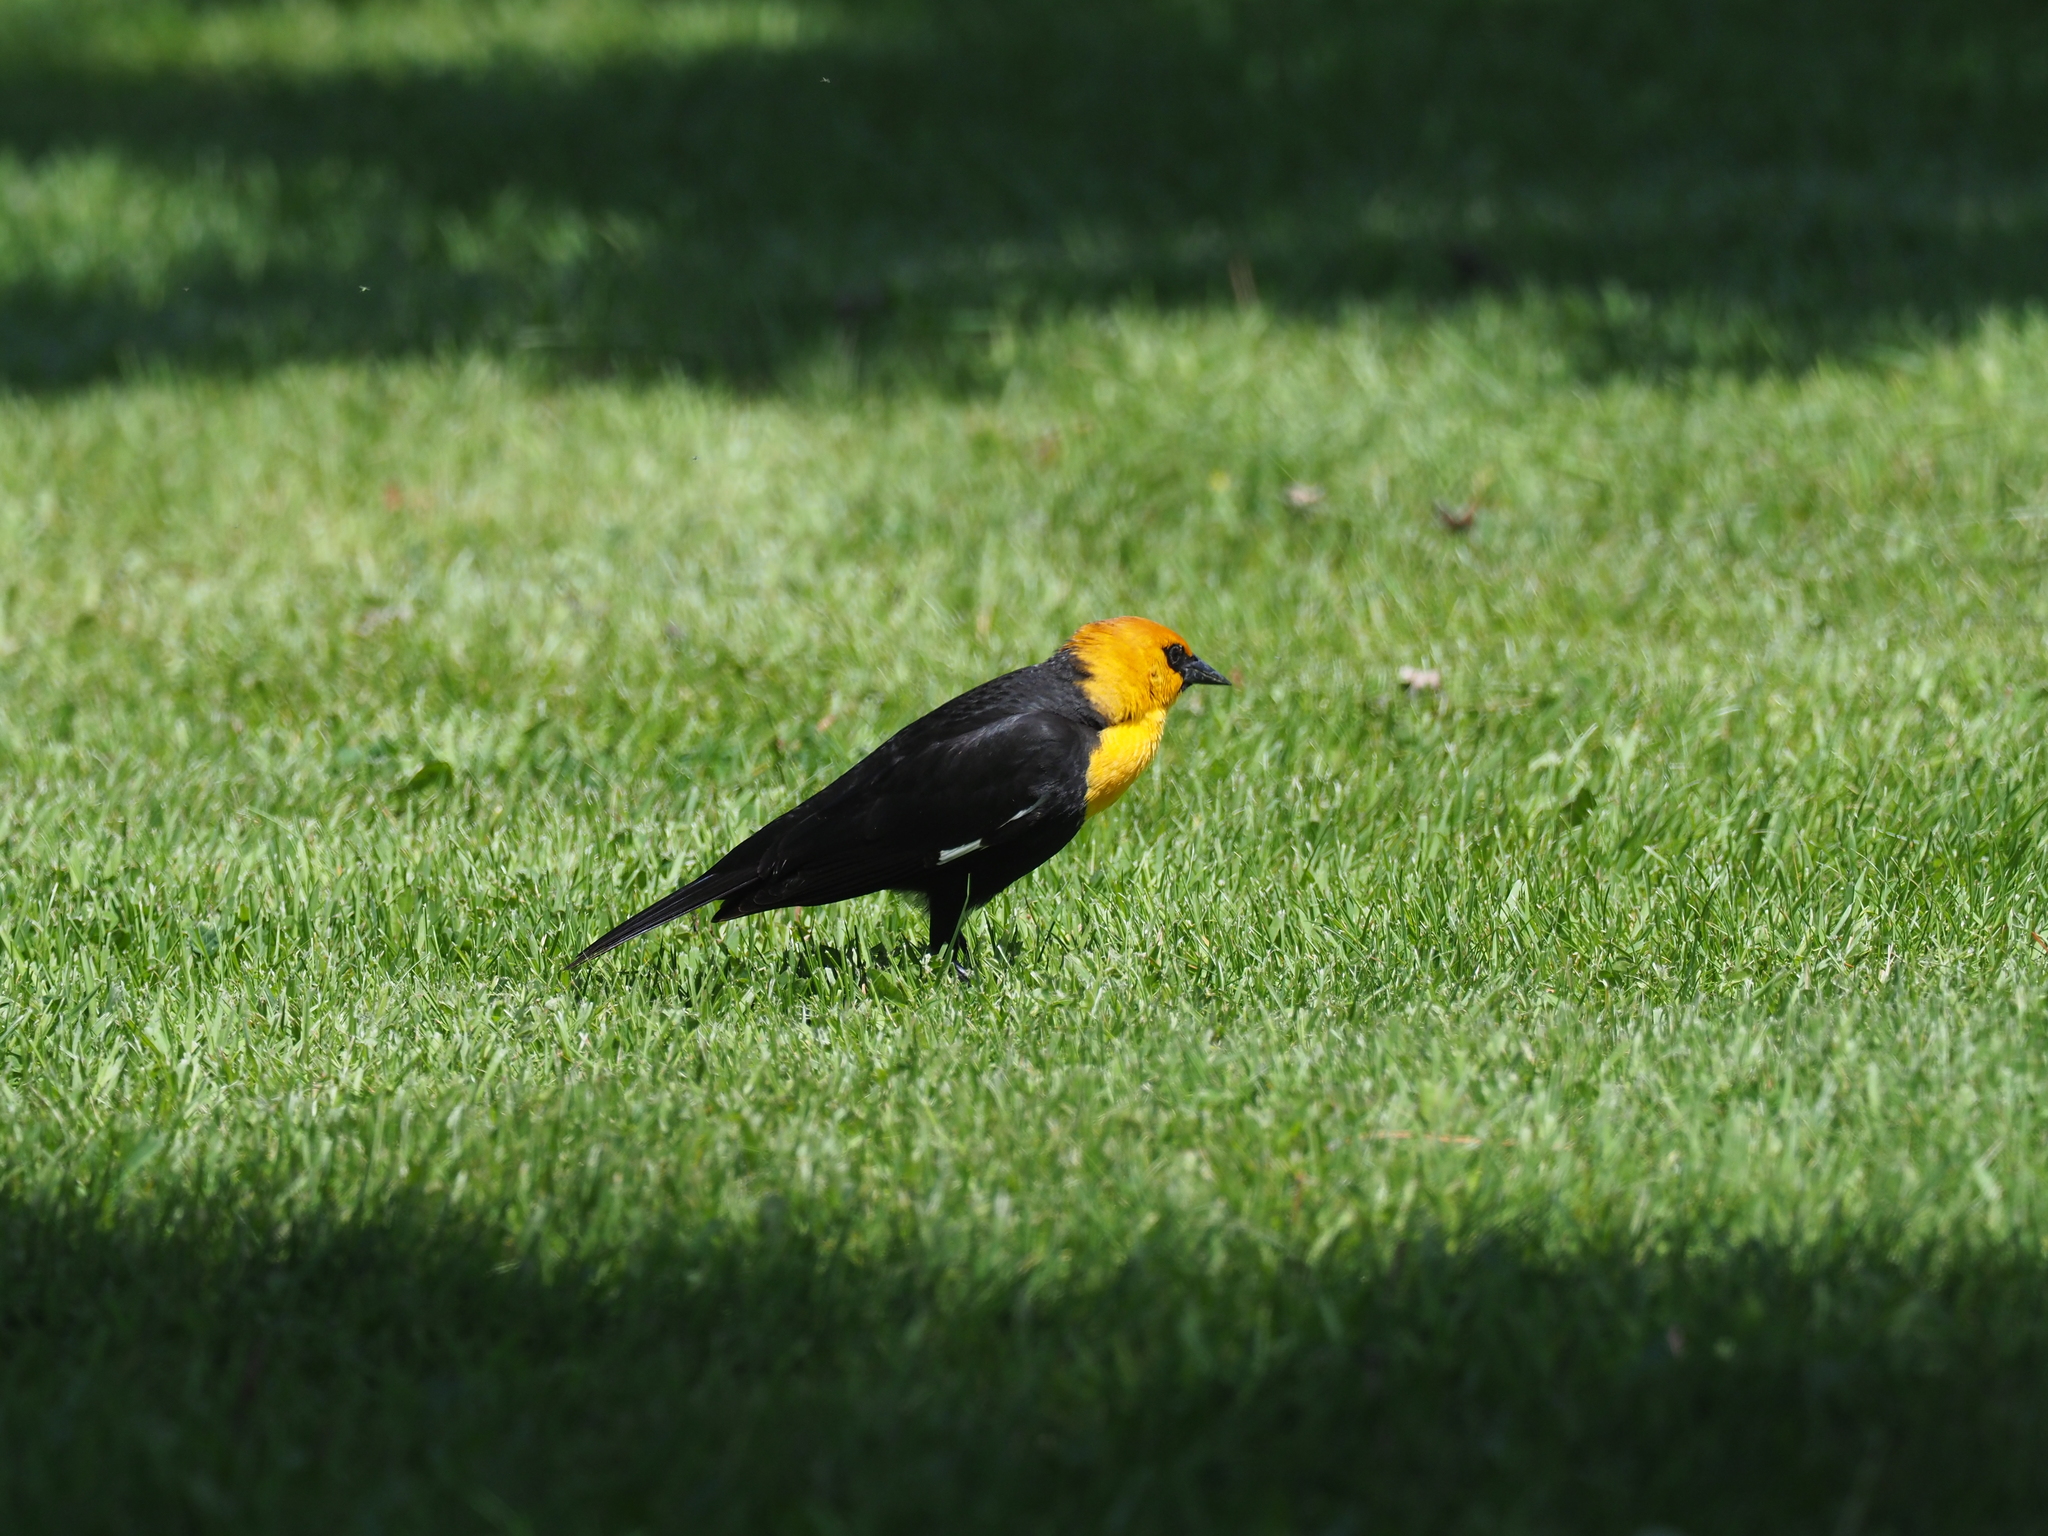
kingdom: Animalia
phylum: Chordata
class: Aves
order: Passeriformes
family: Icteridae
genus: Xanthocephalus
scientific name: Xanthocephalus xanthocephalus
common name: Yellow-headed blackbird
